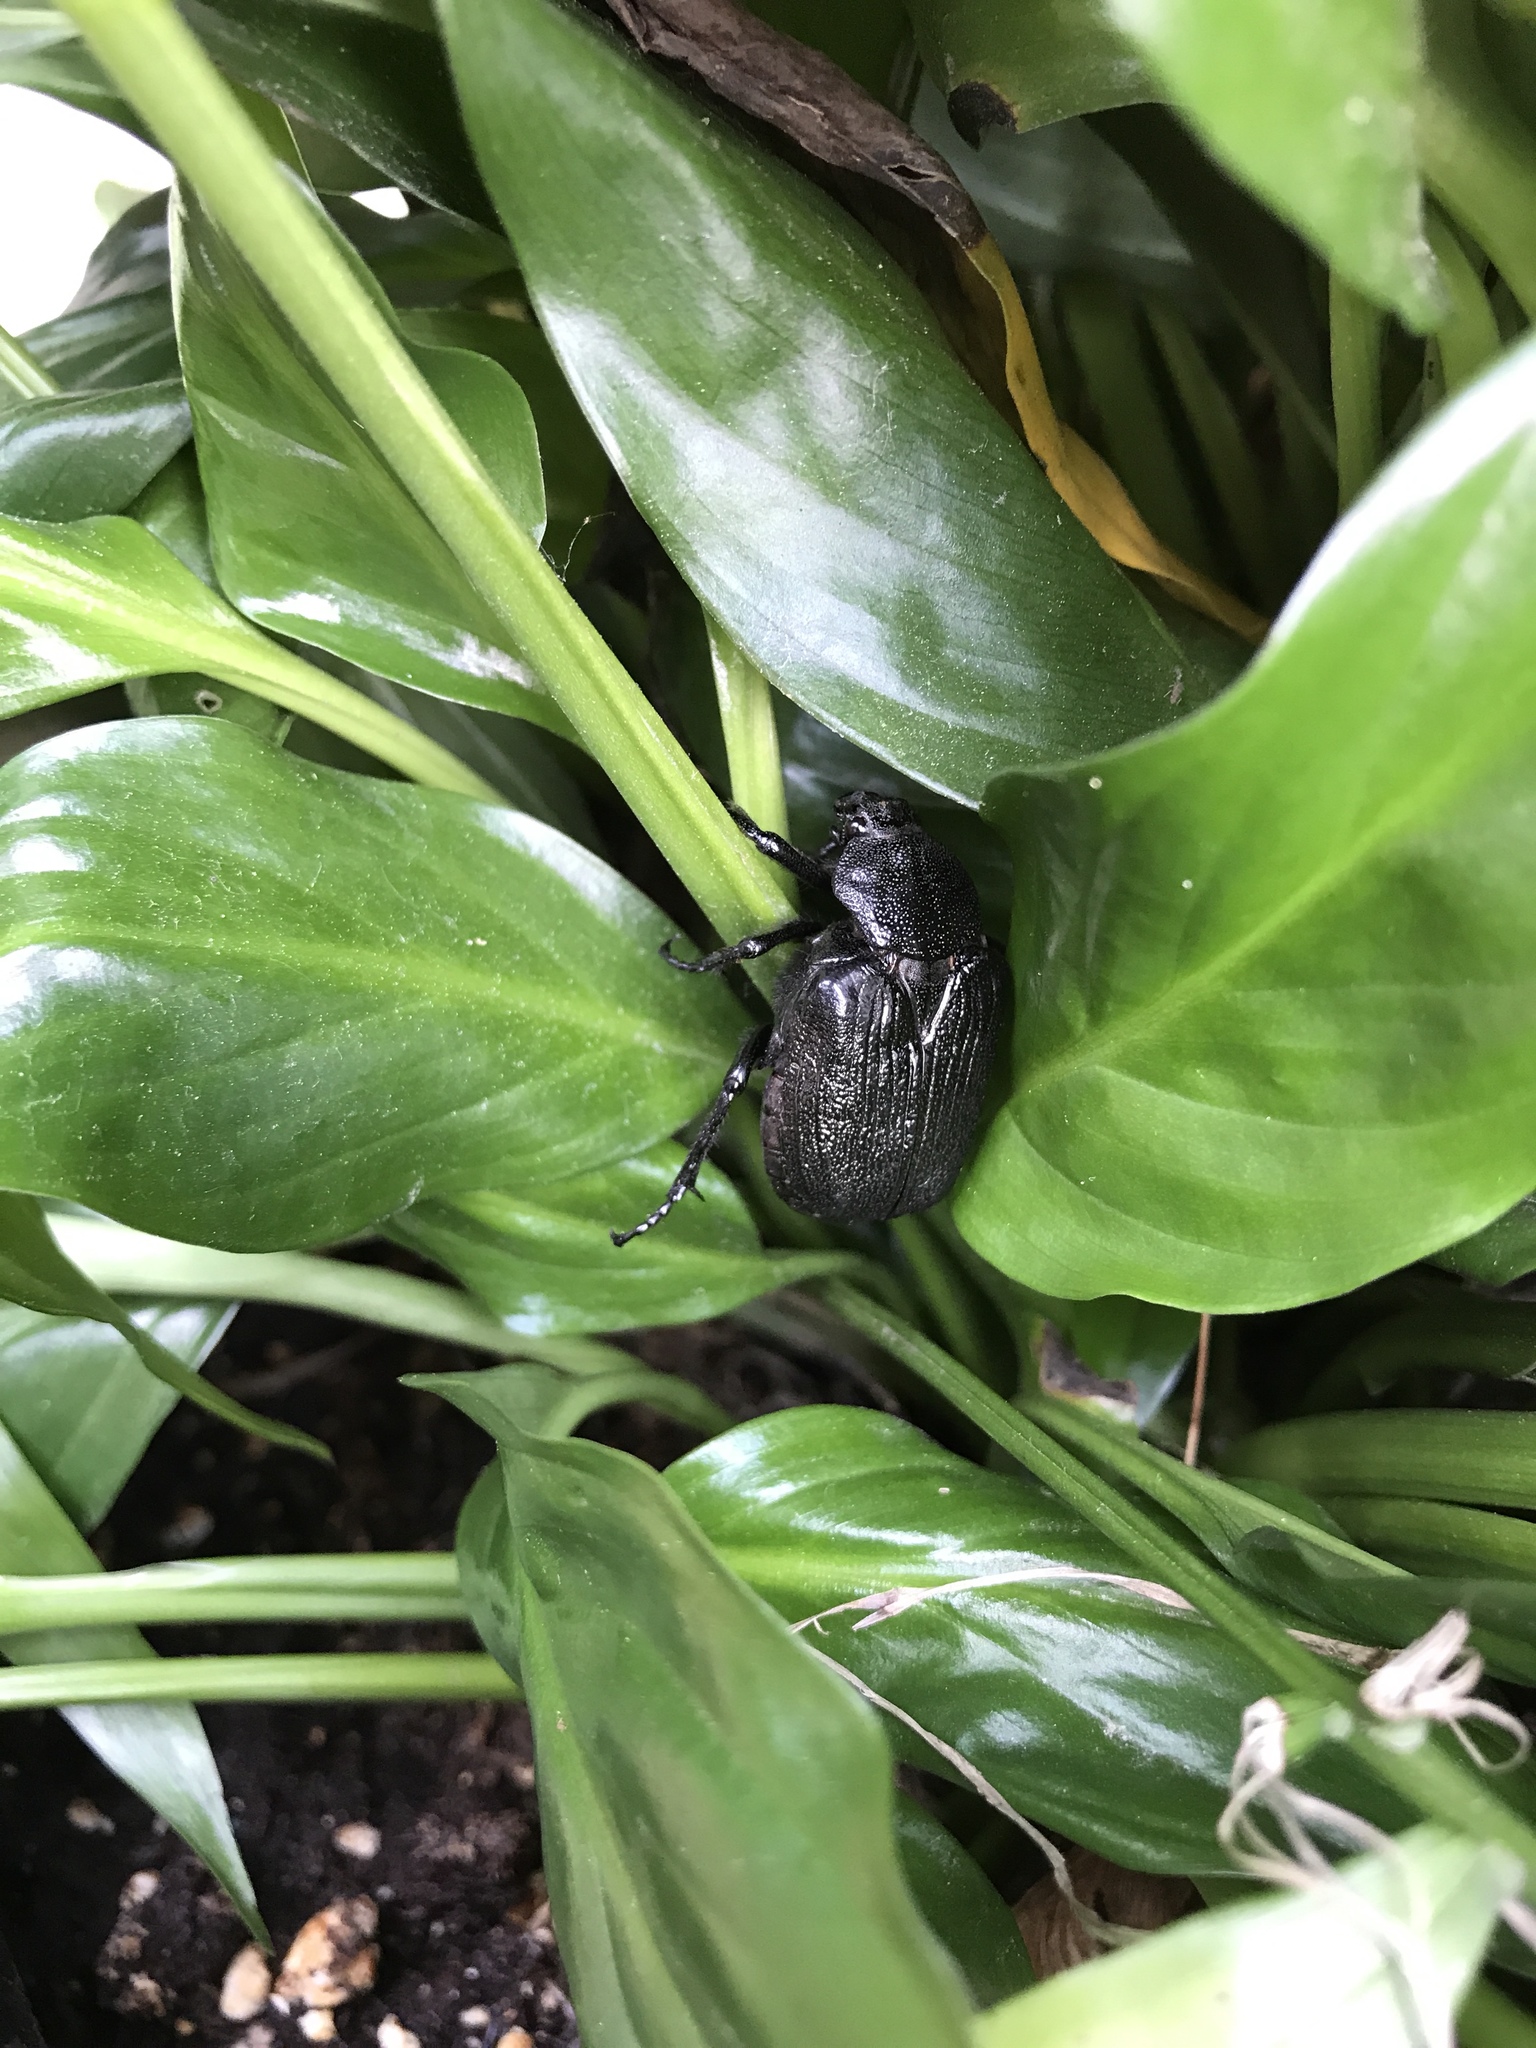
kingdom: Animalia
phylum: Arthropoda
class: Insecta
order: Coleoptera
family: Scarabaeidae
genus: Osmoderma
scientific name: Osmoderma scabra
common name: Rough hermit beetle
